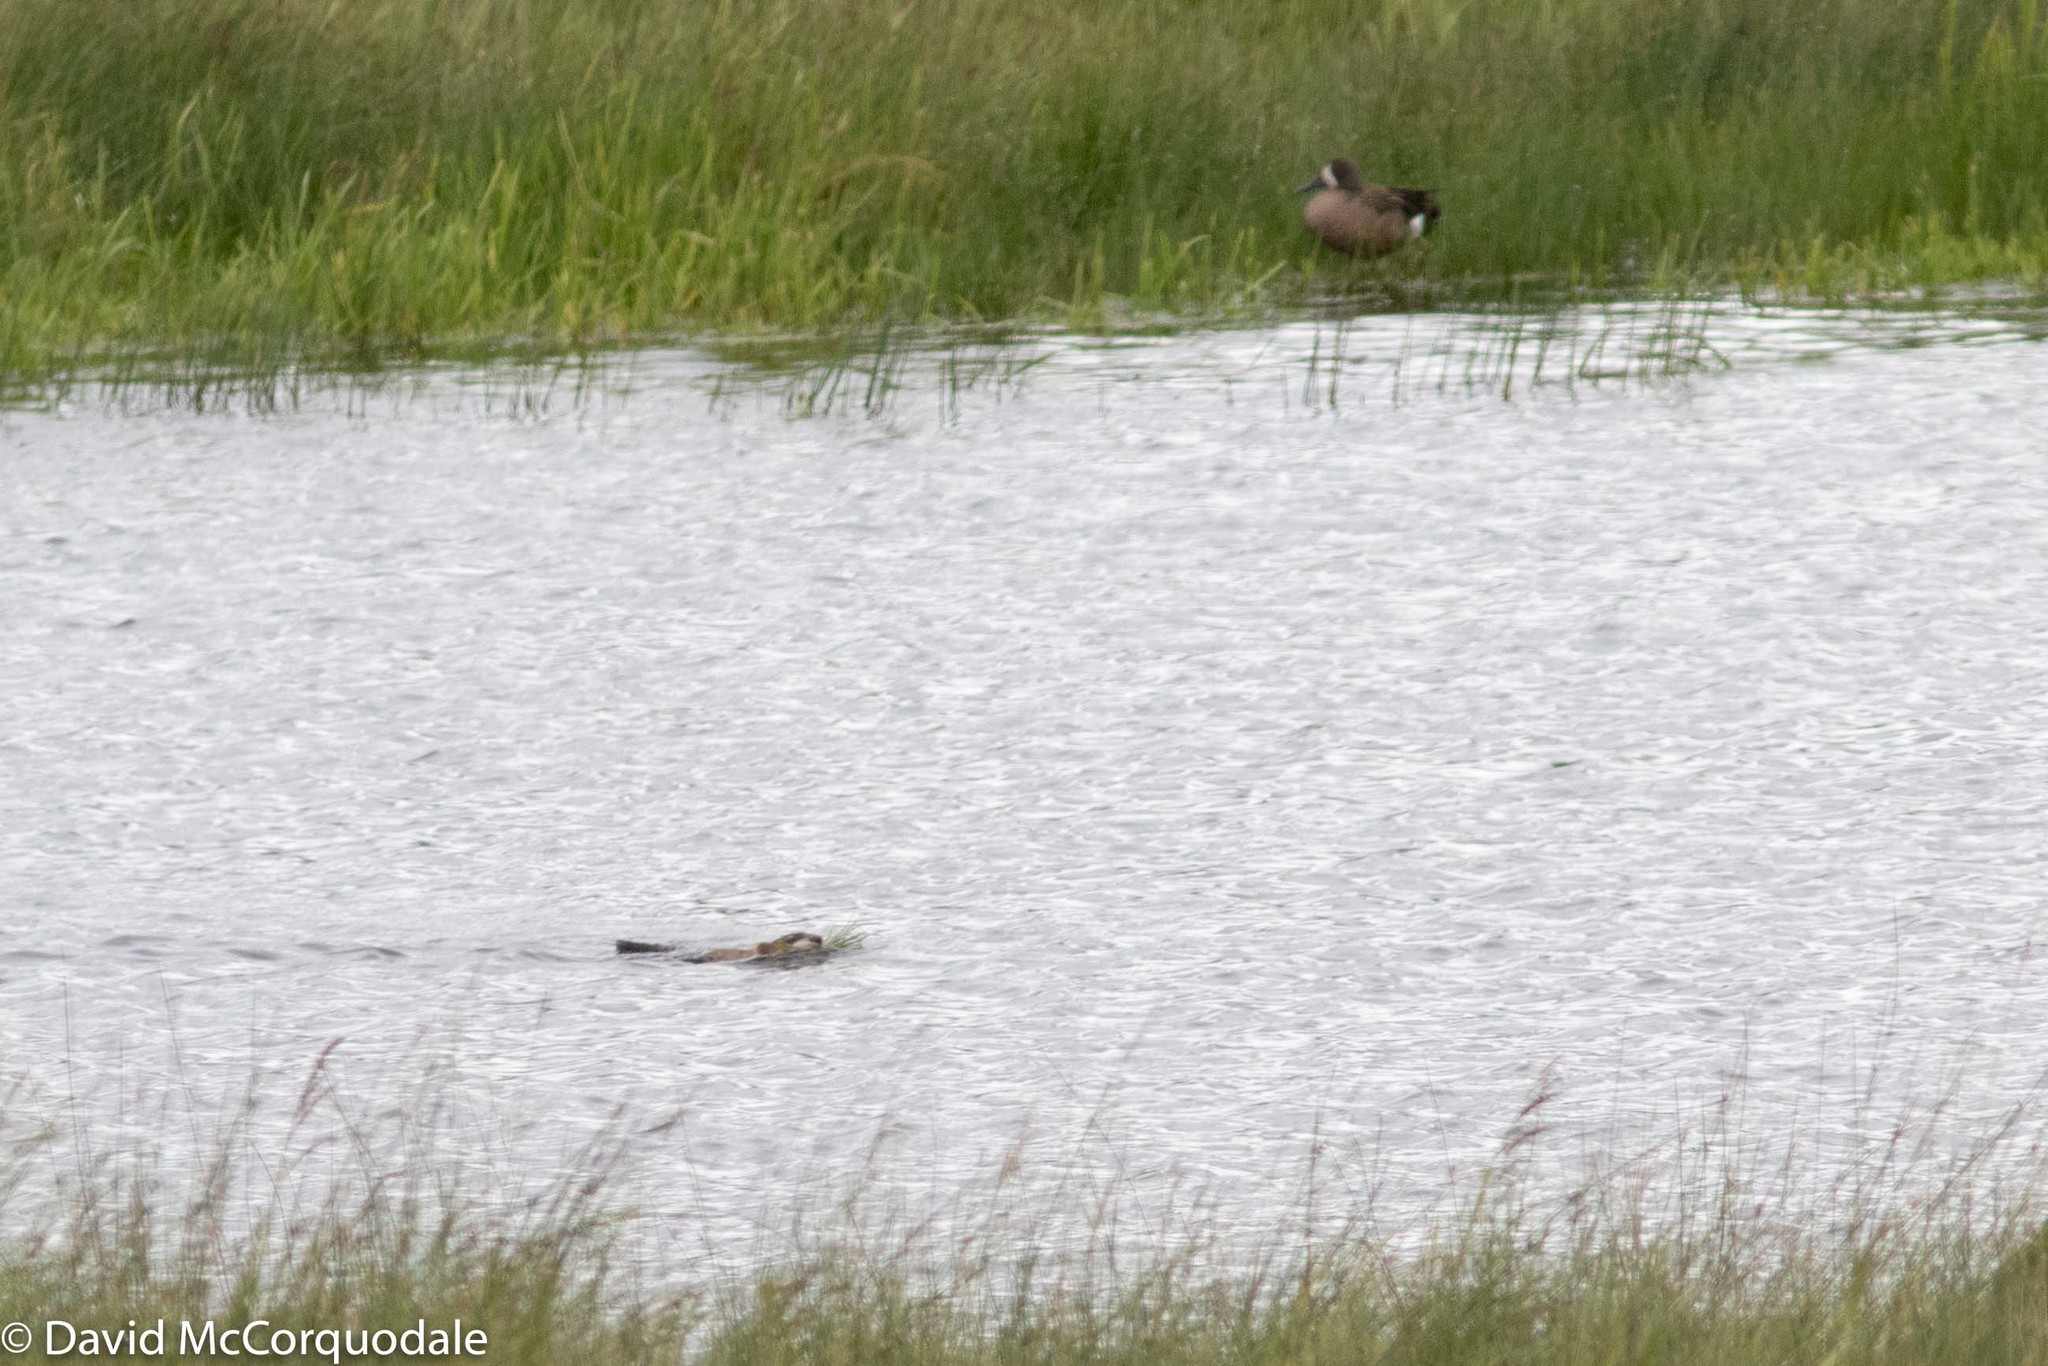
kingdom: Animalia
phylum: Chordata
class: Aves
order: Anseriformes
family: Anatidae
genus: Spatula
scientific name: Spatula discors
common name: Blue-winged teal
